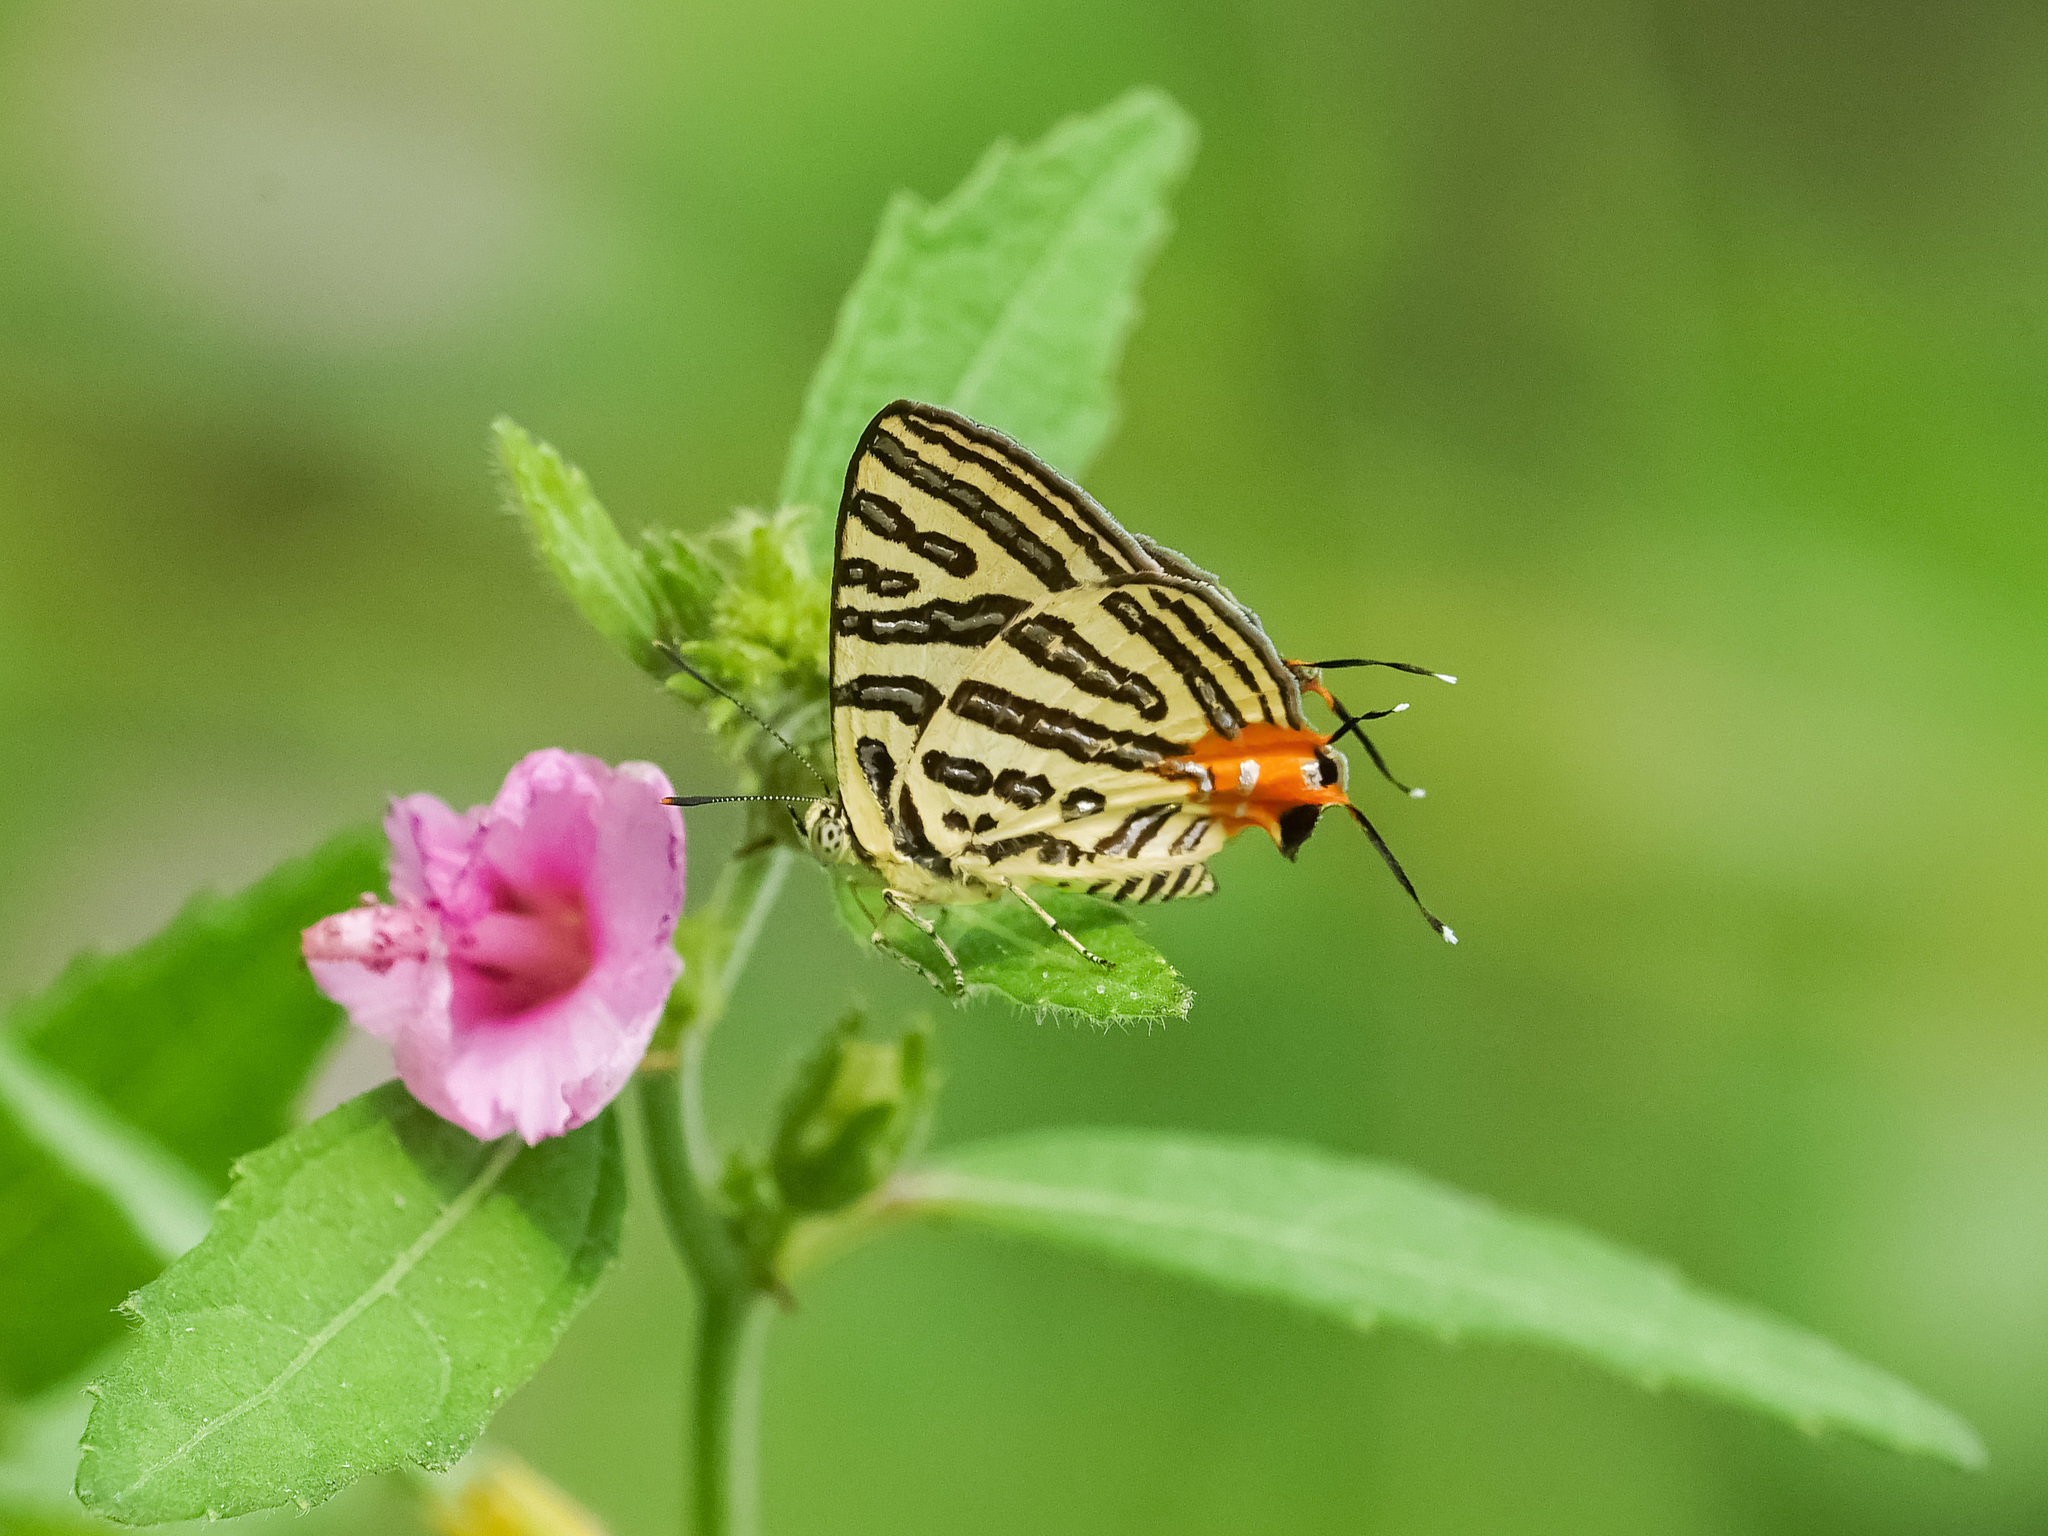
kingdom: Animalia
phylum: Arthropoda
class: Insecta
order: Lepidoptera
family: Lycaenidae
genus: Cigaritis
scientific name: Cigaritis syama
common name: Club silverline
